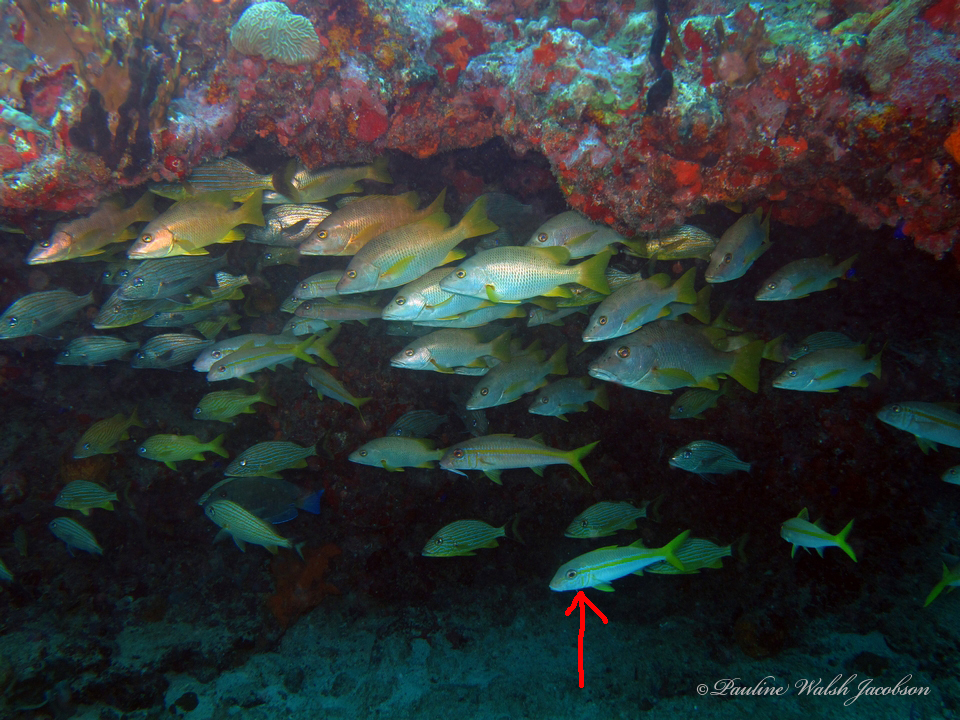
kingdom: Animalia
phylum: Chordata
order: Perciformes
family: Mullidae
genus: Mulloidichthys
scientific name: Mulloidichthys martinicus
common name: Yellow goatfish
